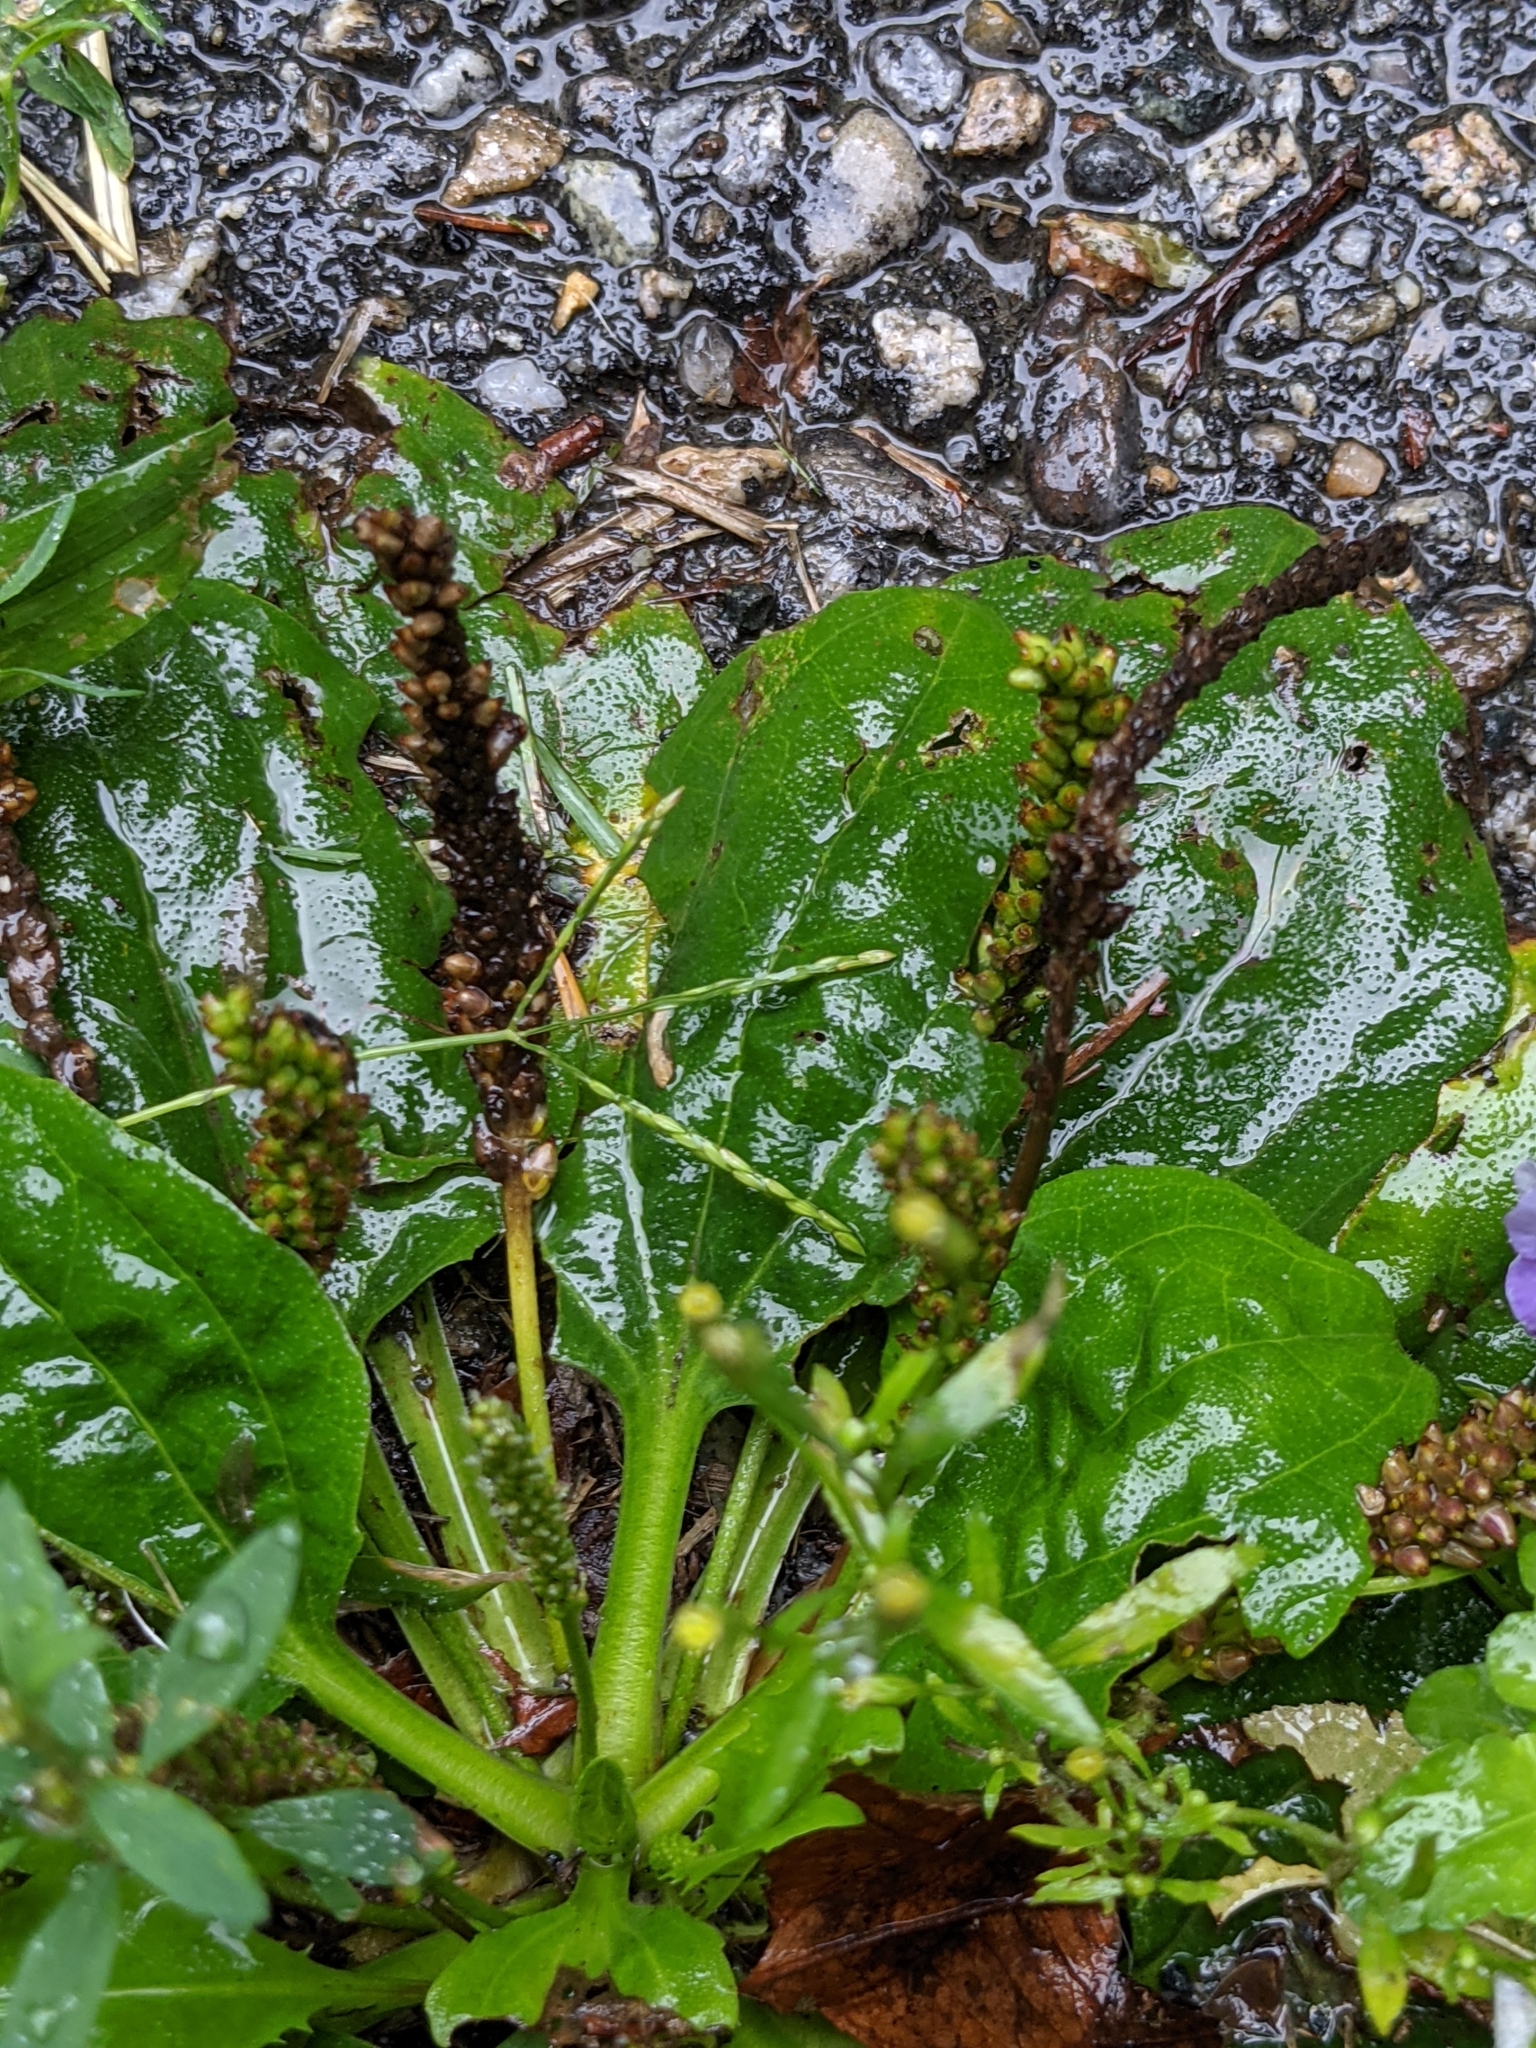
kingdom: Plantae
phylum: Tracheophyta
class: Magnoliopsida
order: Lamiales
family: Plantaginaceae
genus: Plantago
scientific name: Plantago major
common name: Common plantain
